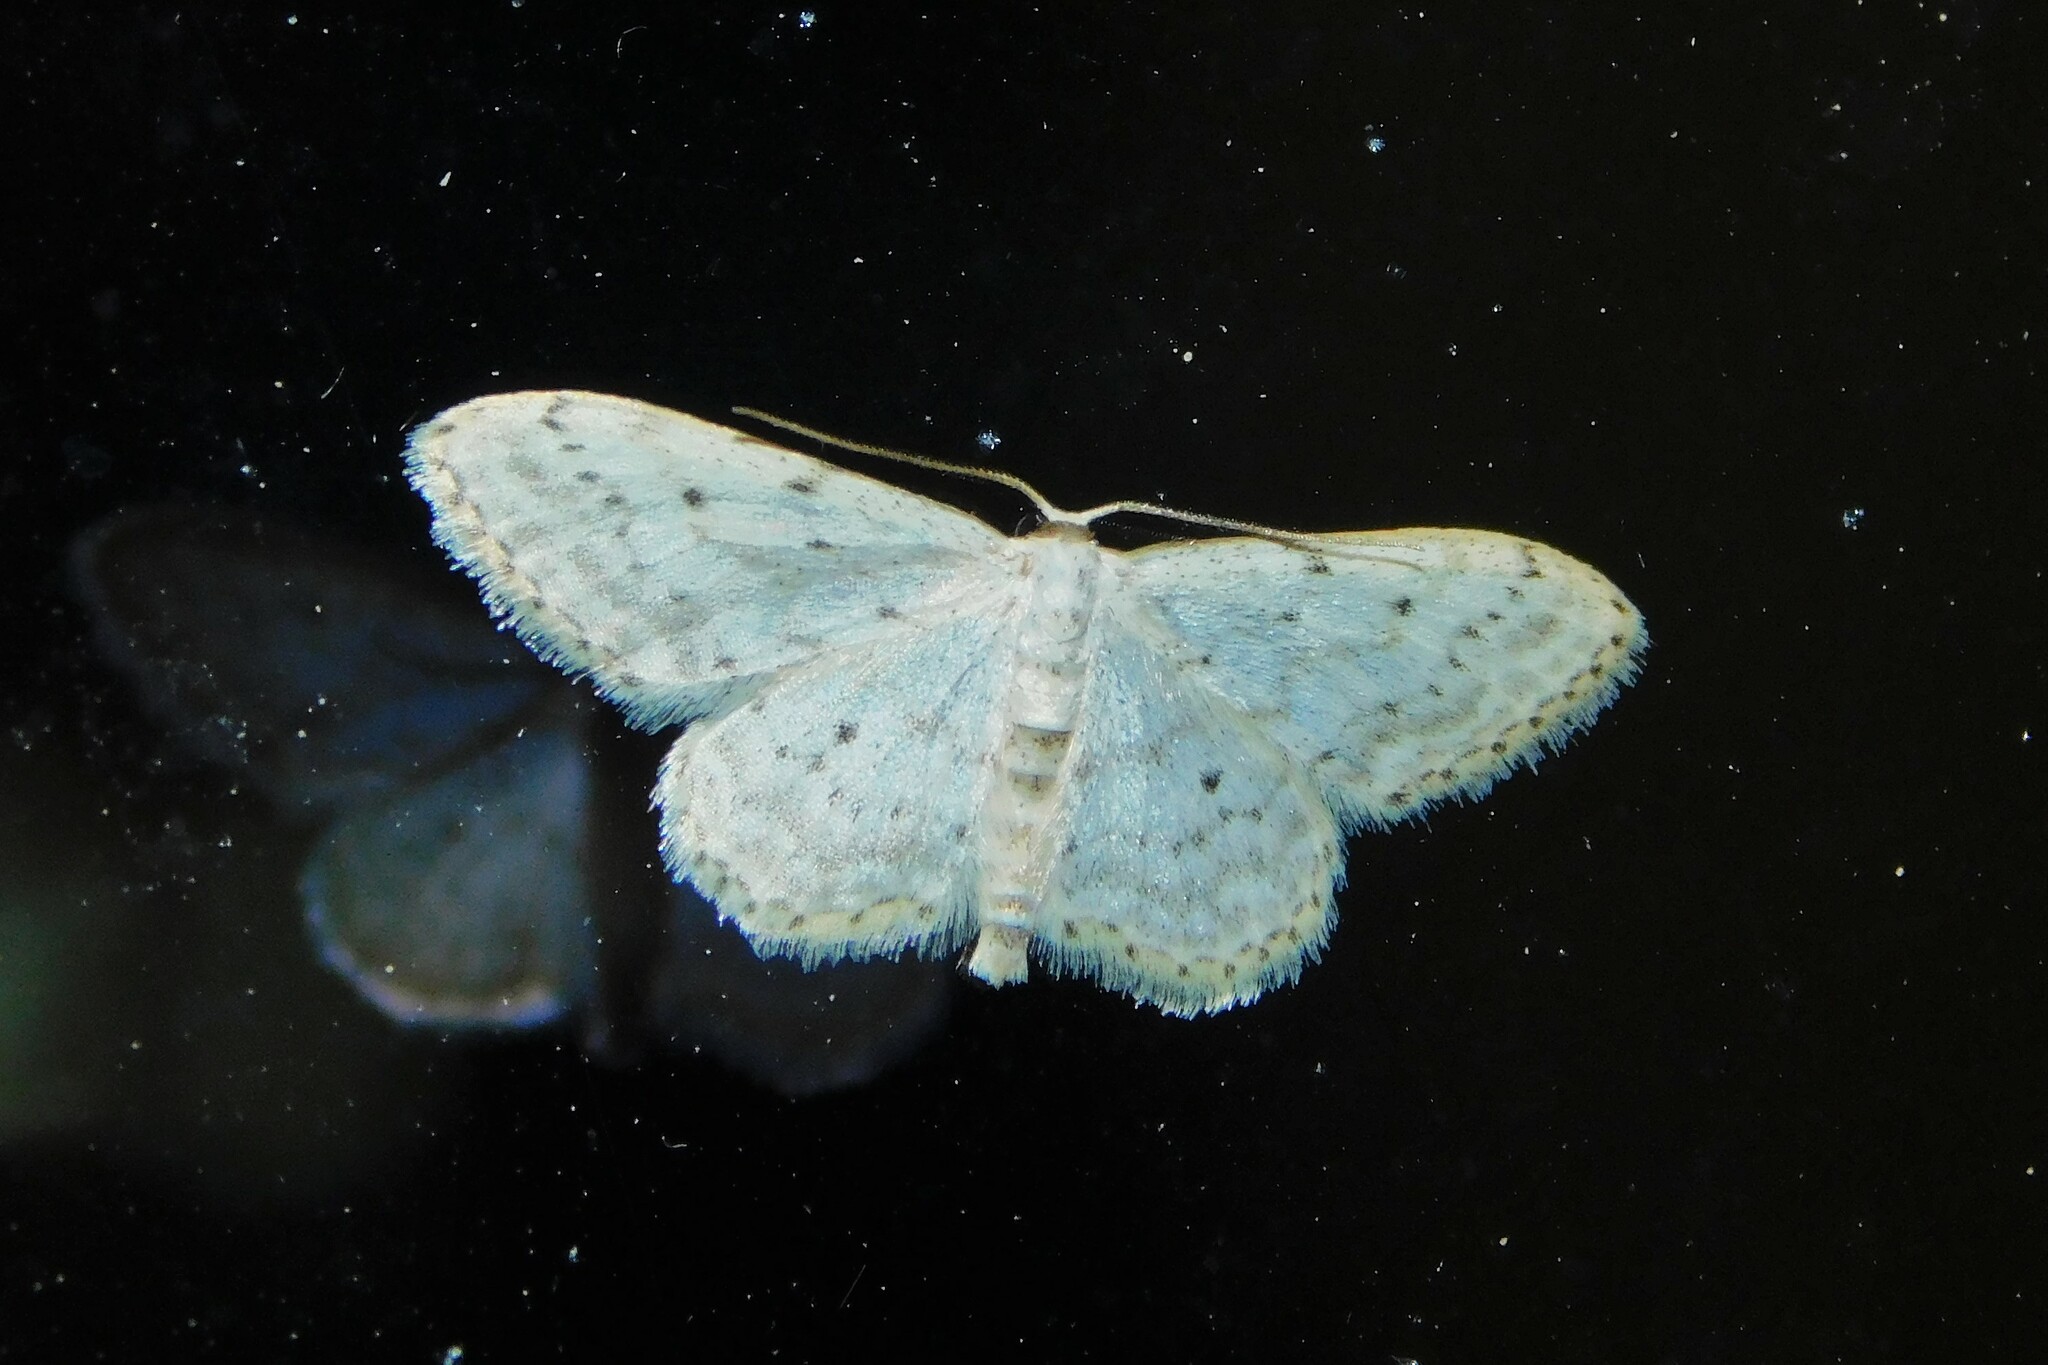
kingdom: Animalia
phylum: Arthropoda
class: Insecta
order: Lepidoptera
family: Geometridae
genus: Idaea
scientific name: Idaea seriata
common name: Small dusty wave
